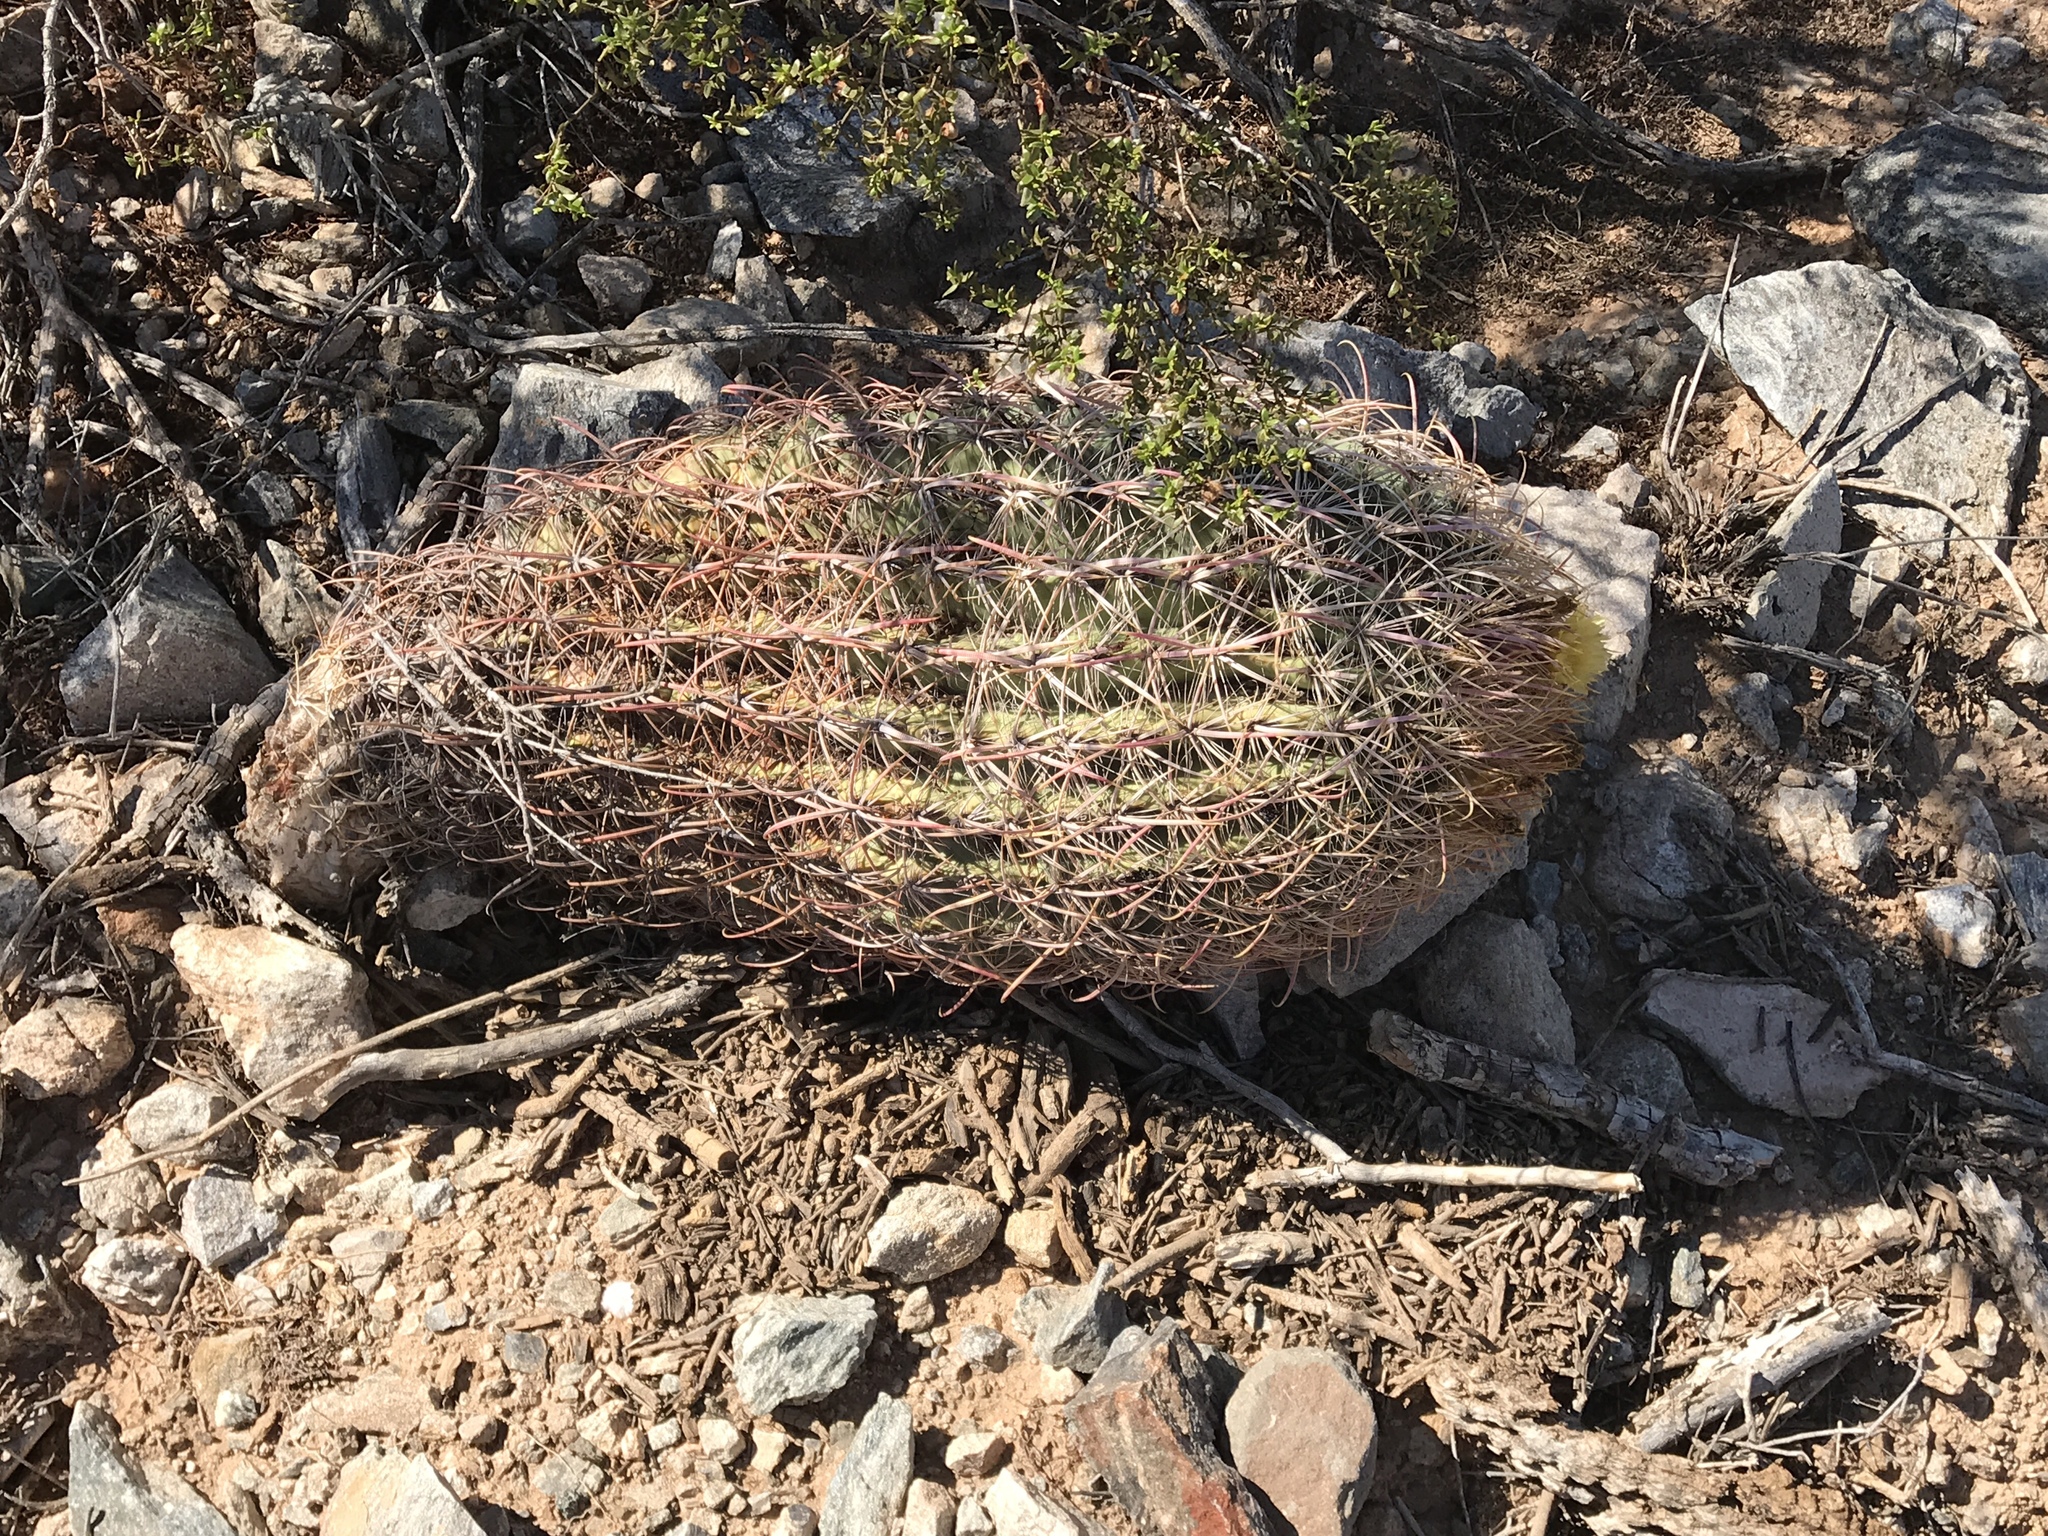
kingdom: Plantae
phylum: Tracheophyta
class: Magnoliopsida
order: Caryophyllales
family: Cactaceae
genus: Ferocactus
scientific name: Ferocactus cylindraceus
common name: California barrel cactus
